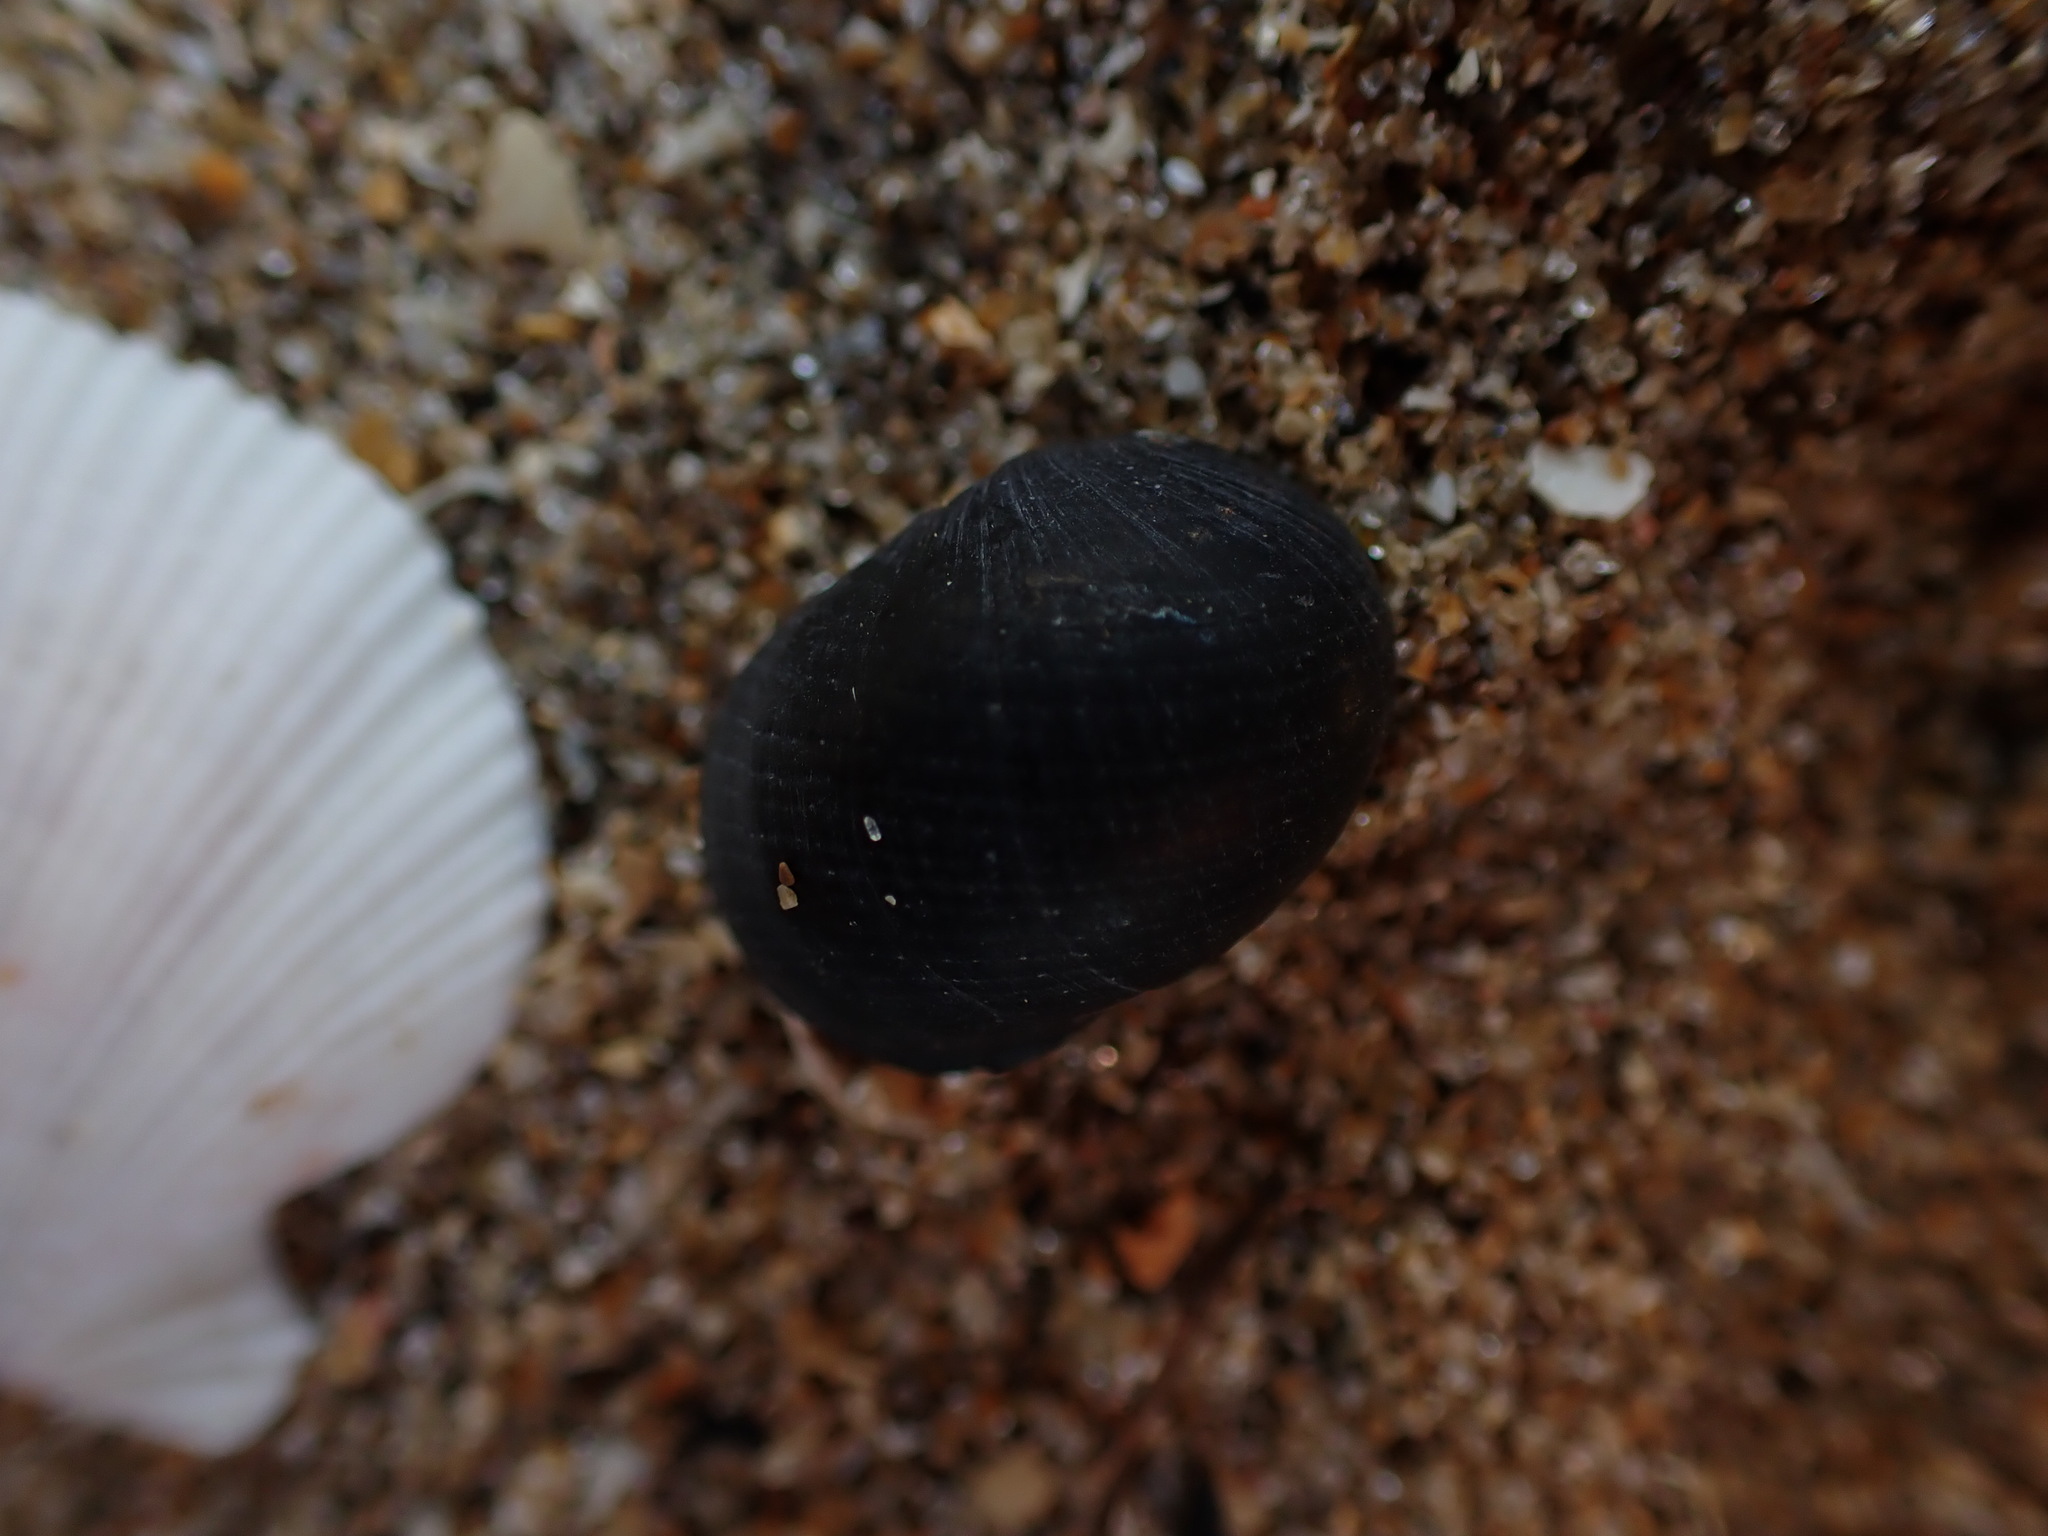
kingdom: Animalia
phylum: Mollusca
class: Gastropoda
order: Cycloneritida
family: Neritidae
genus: Nerita
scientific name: Nerita melanotragus
